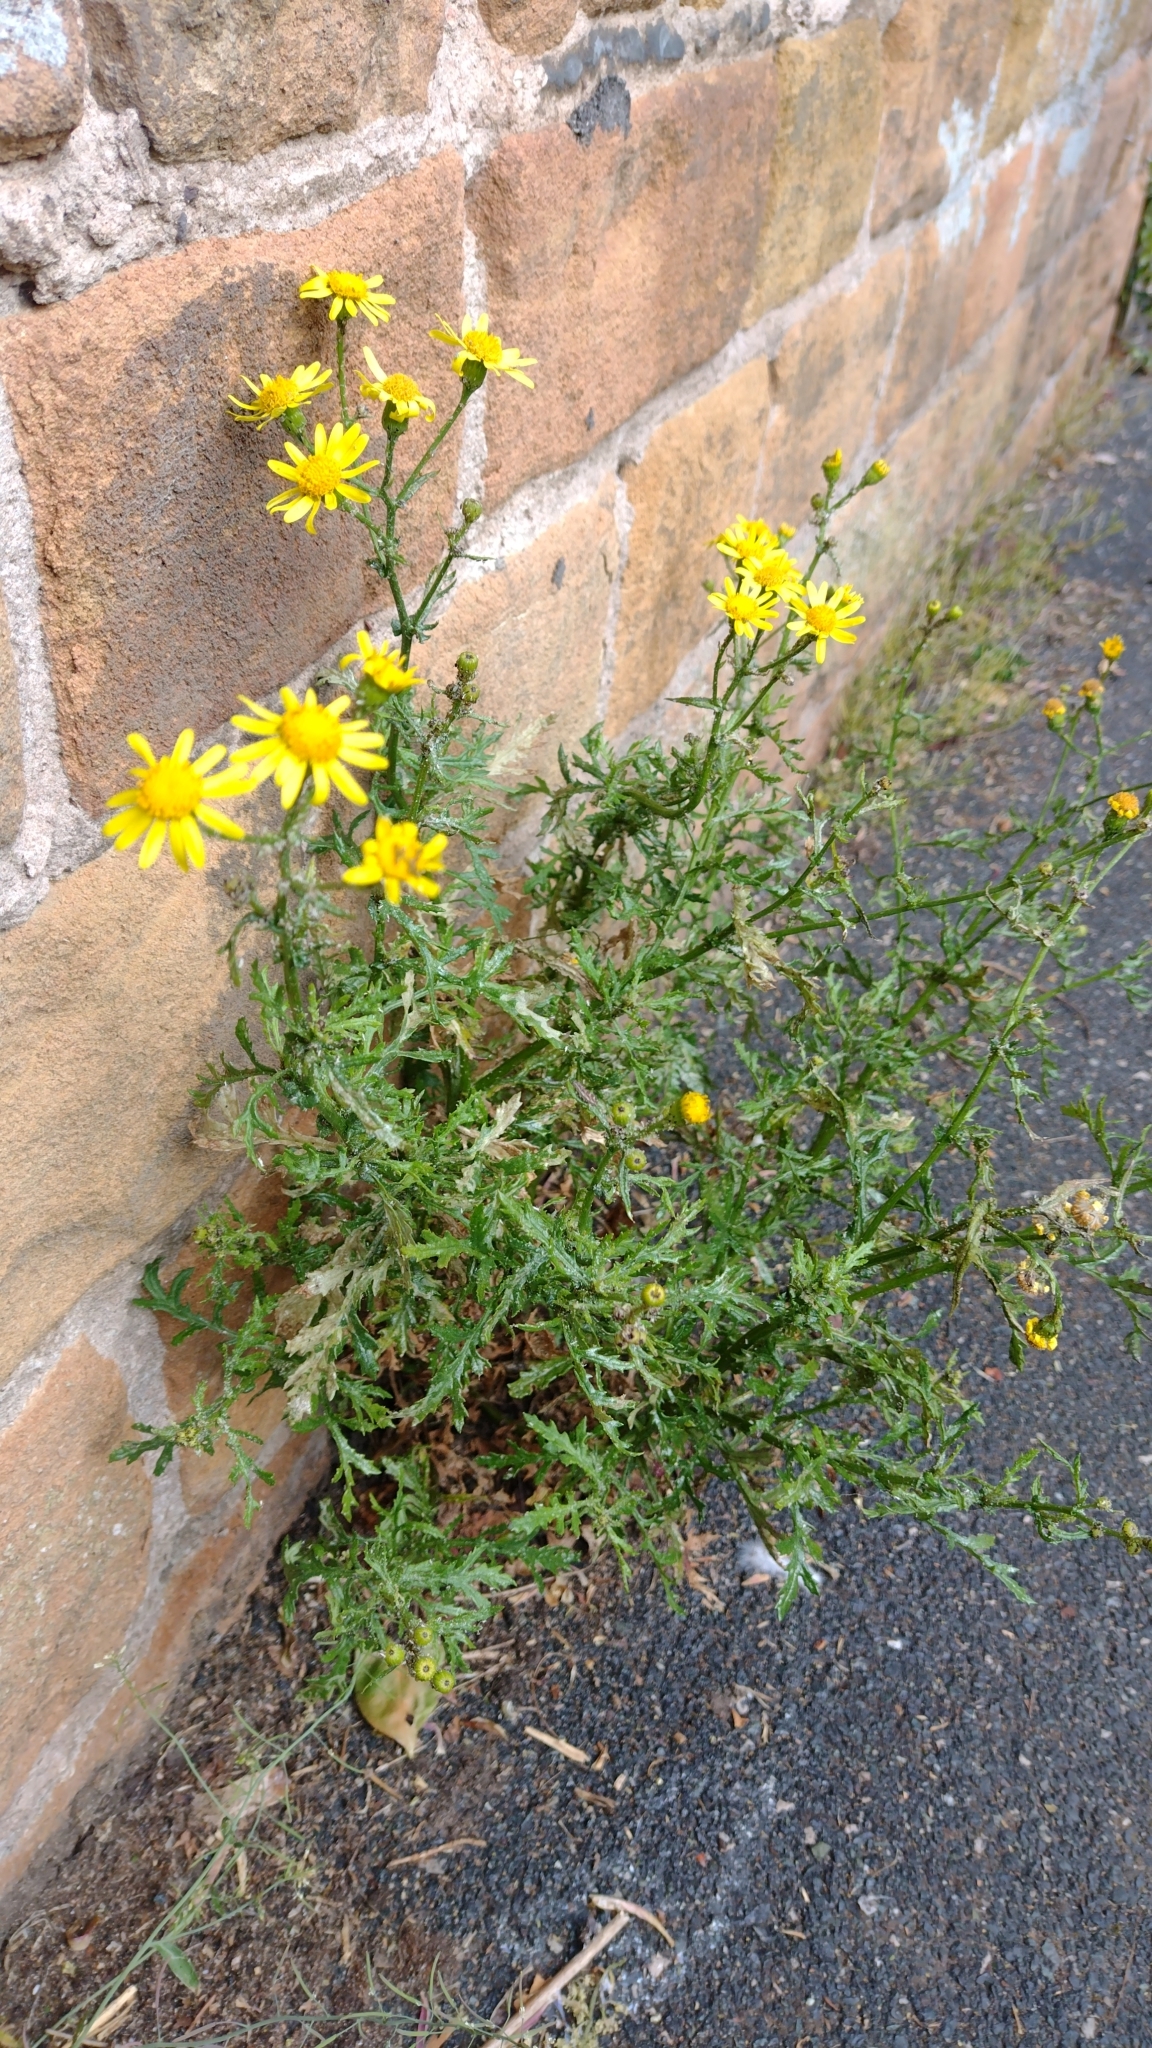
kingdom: Plantae
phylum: Tracheophyta
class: Magnoliopsida
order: Asterales
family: Asteraceae
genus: Senecio
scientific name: Senecio squalidus
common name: Oxford ragwort
